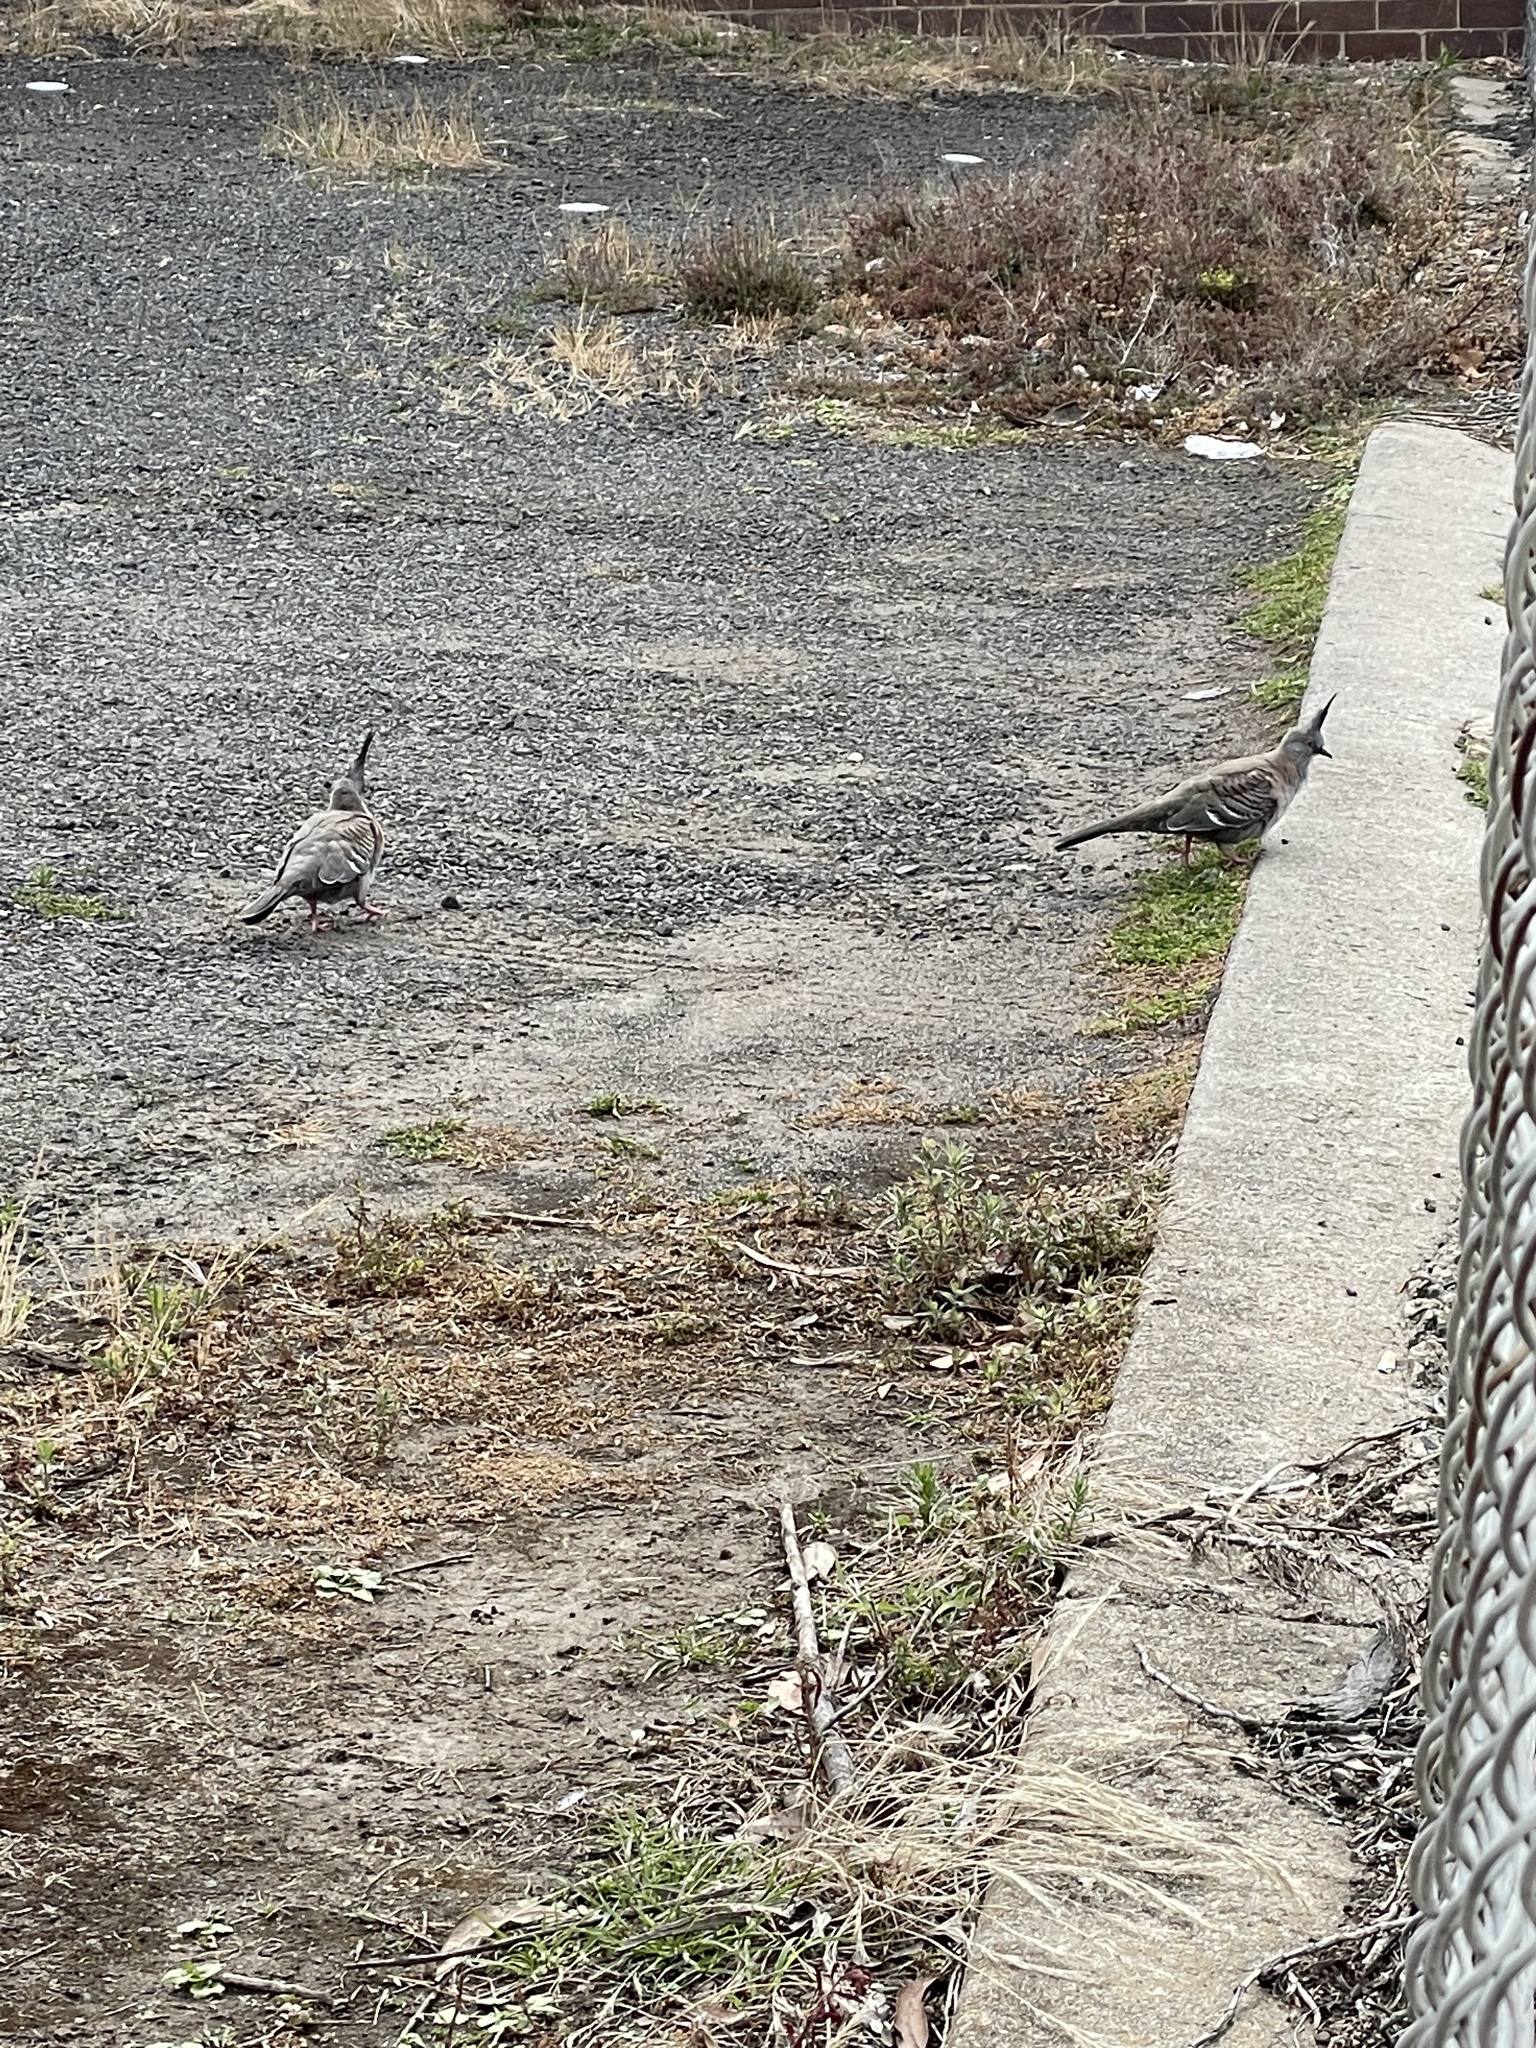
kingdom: Animalia
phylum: Chordata
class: Aves
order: Columbiformes
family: Columbidae
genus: Ocyphaps
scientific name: Ocyphaps lophotes
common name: Crested pigeon
